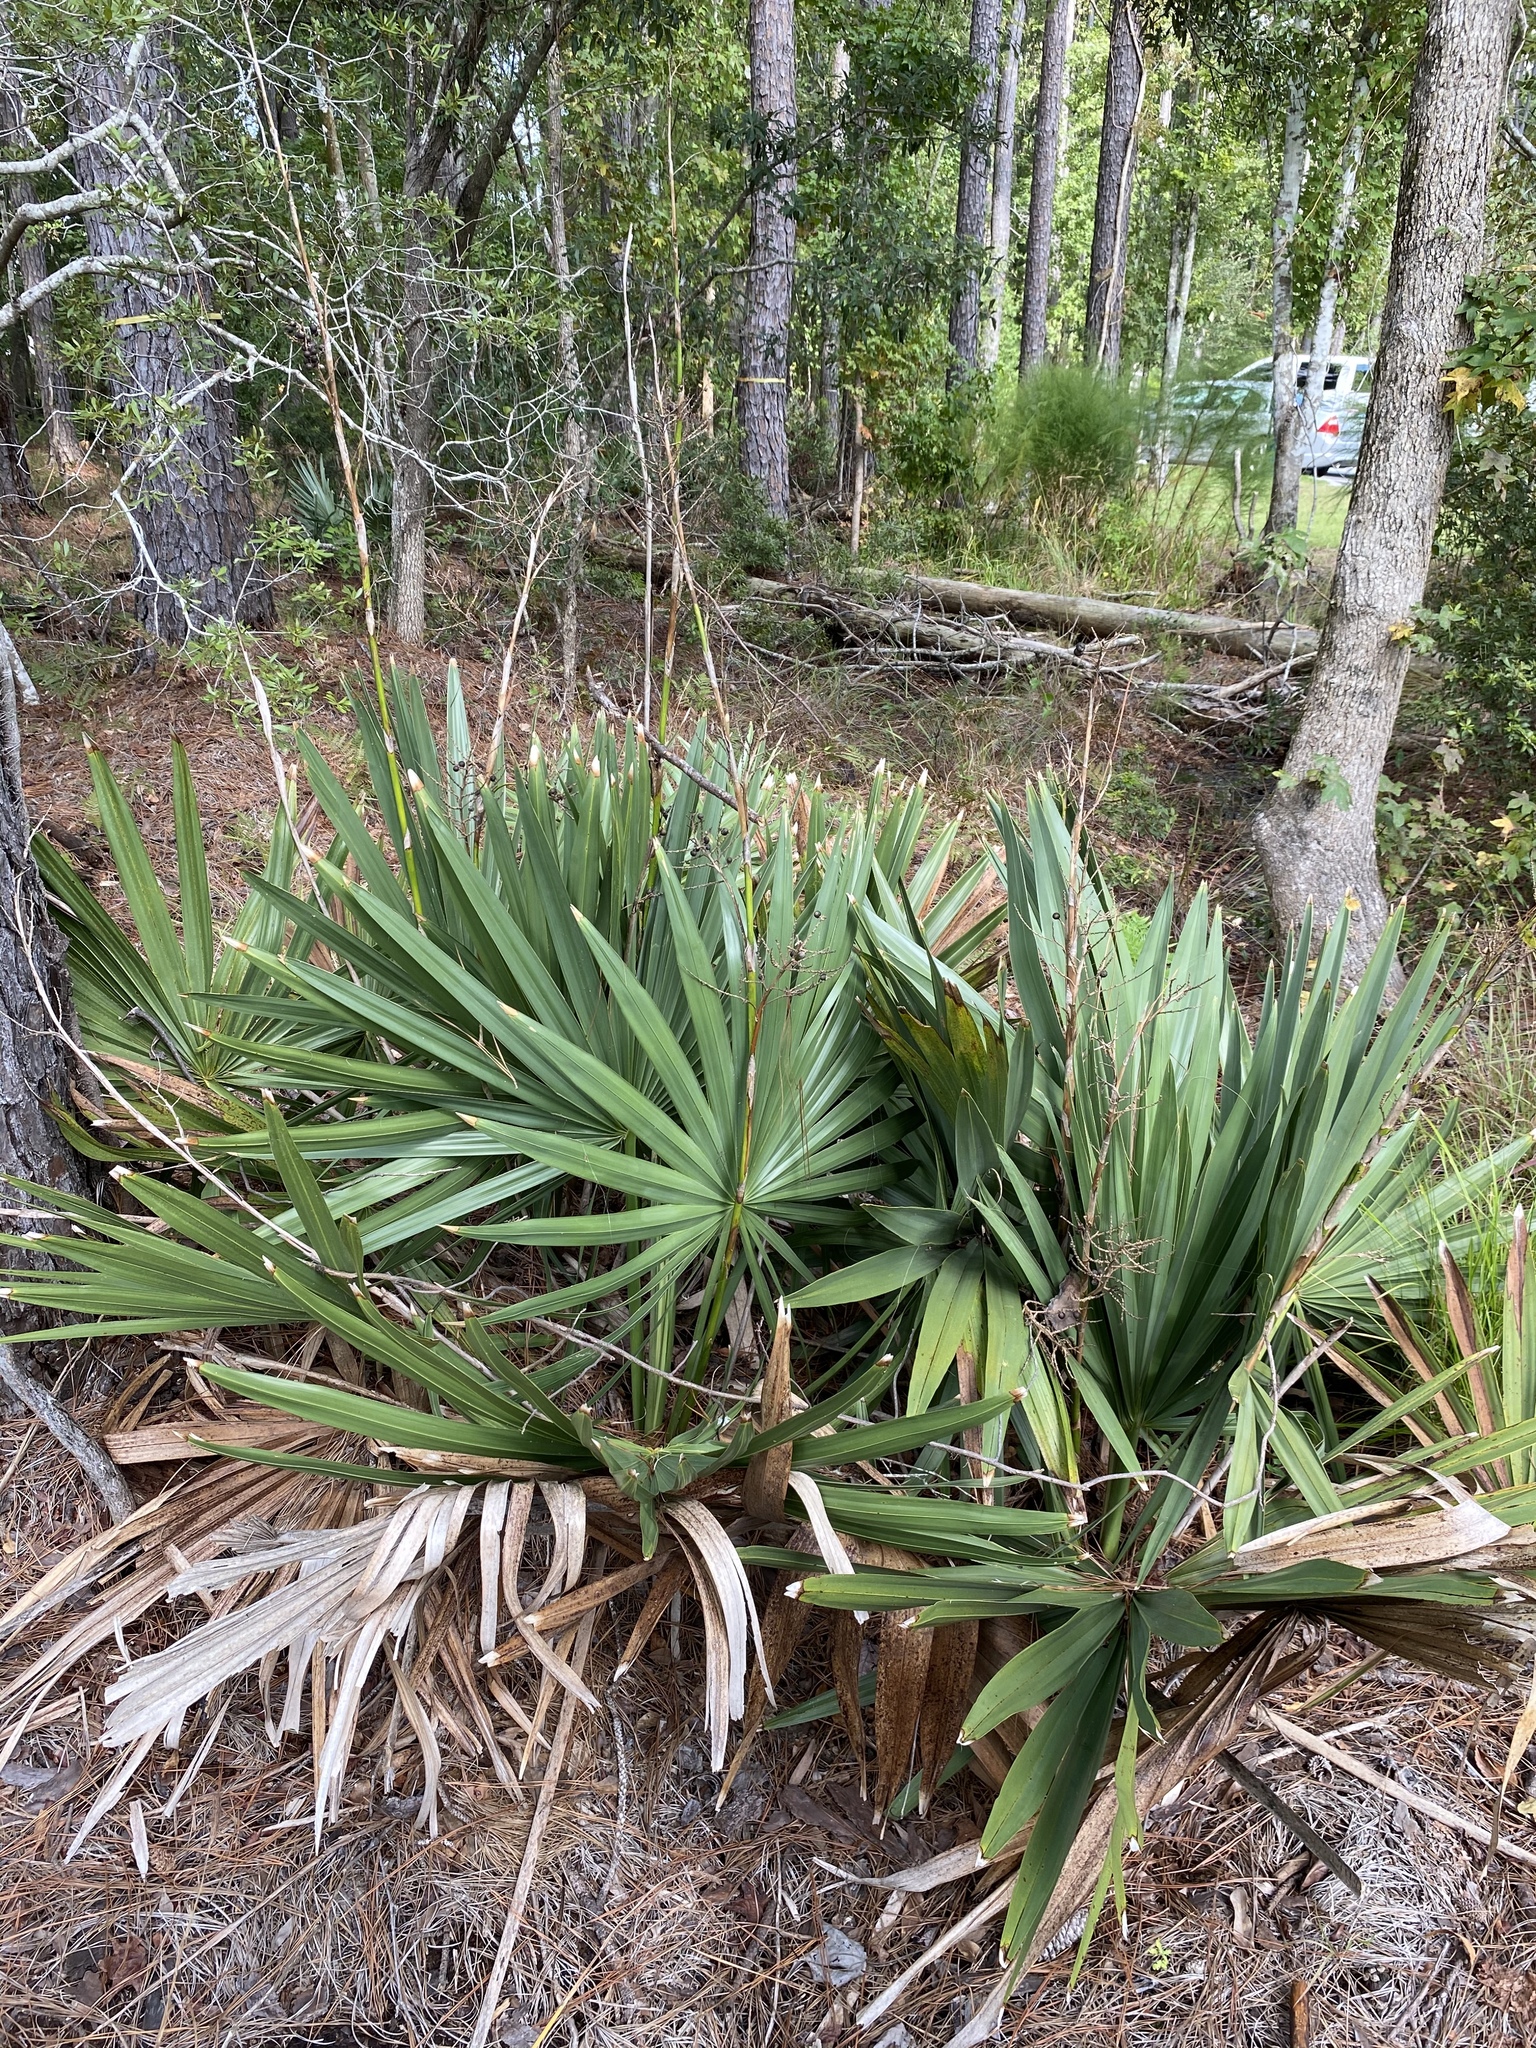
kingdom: Plantae
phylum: Tracheophyta
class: Liliopsida
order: Arecales
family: Arecaceae
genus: Sabal
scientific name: Sabal minor
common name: Dwarf palmetto
